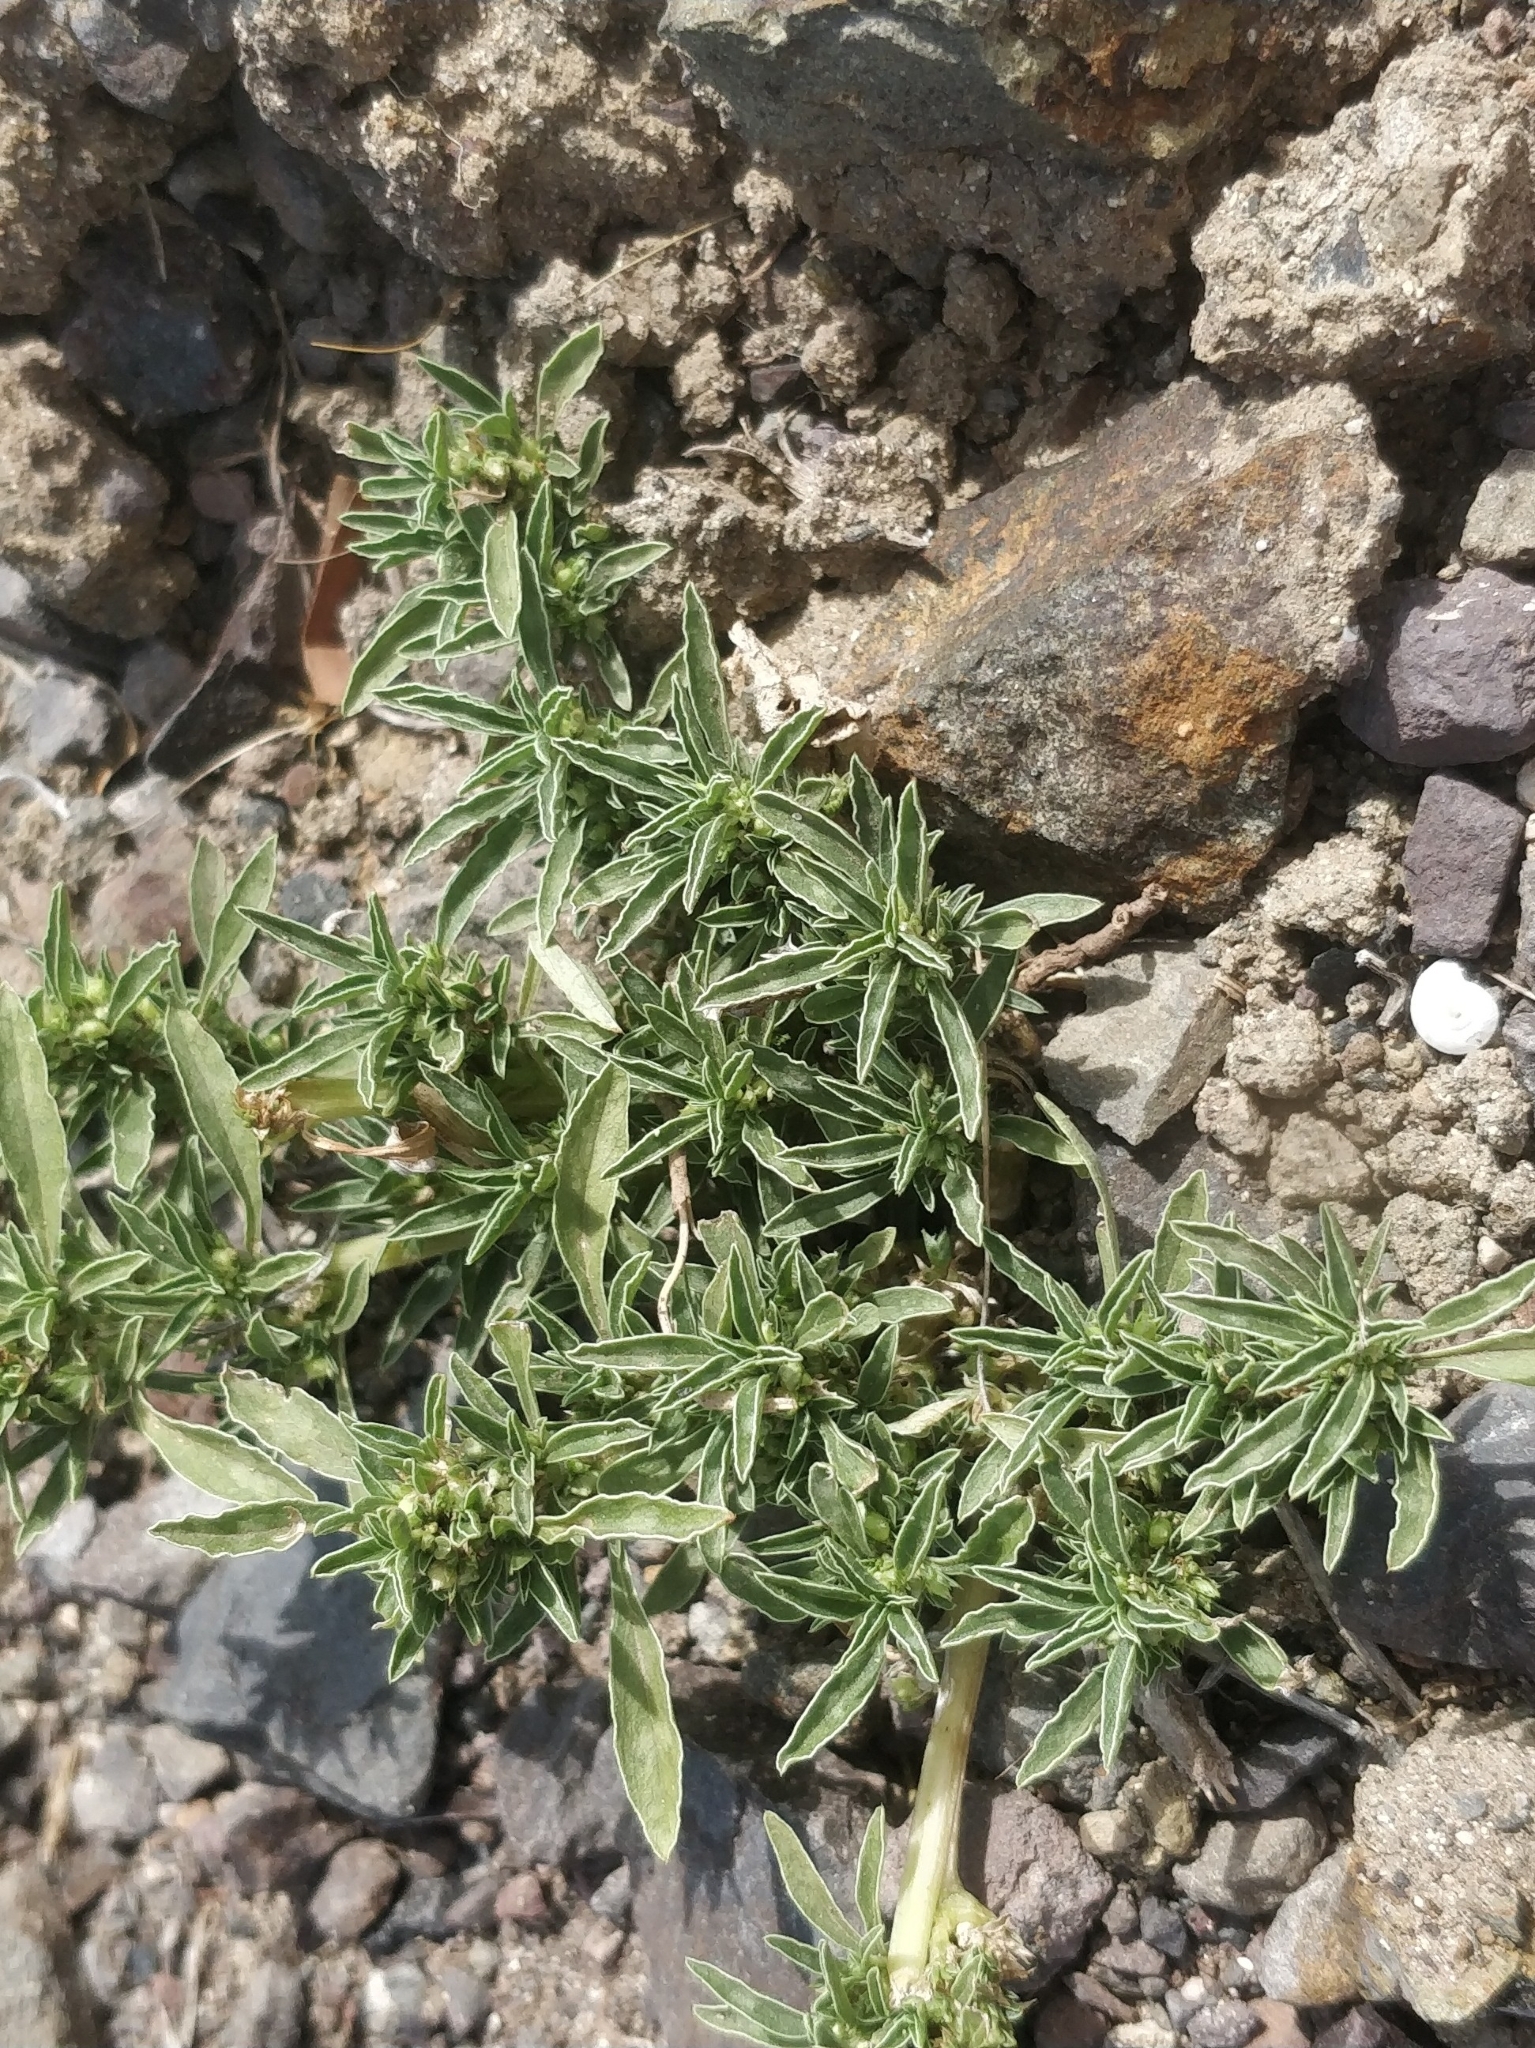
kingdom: Plantae
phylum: Tracheophyta
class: Magnoliopsida
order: Caryophyllales
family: Amaranthaceae
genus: Amaranthus
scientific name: Amaranthus blitoides
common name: Prostrate pigweed
